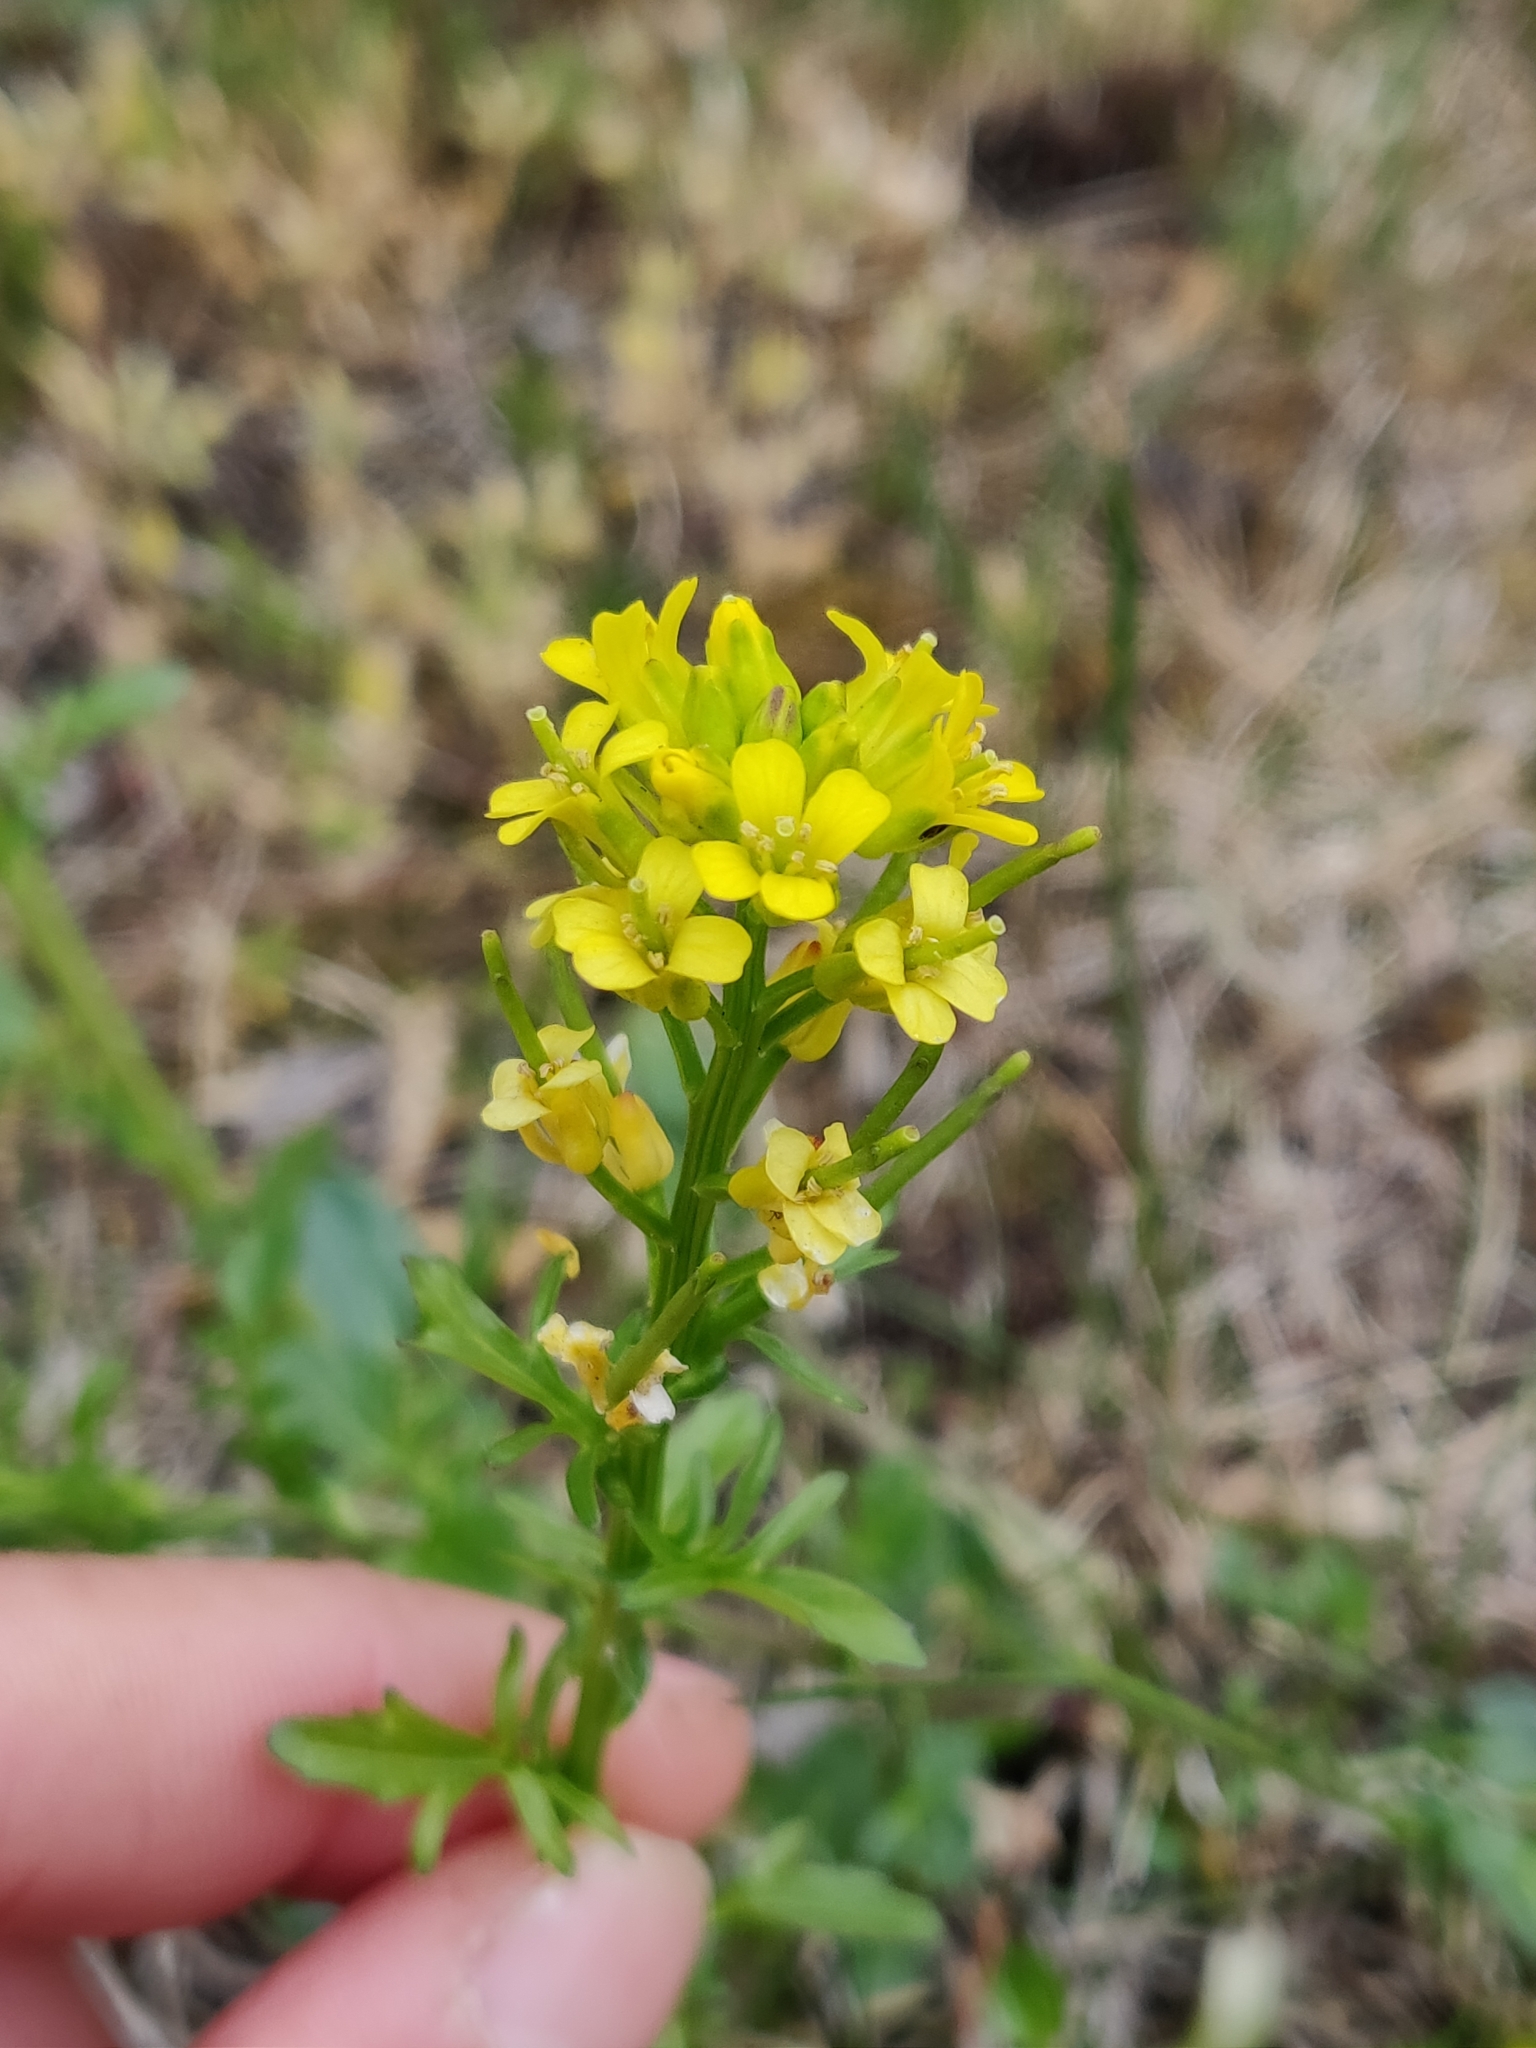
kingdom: Plantae
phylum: Tracheophyta
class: Magnoliopsida
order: Brassicales
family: Brassicaceae
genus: Barbarea
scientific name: Barbarea verna
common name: American cress
